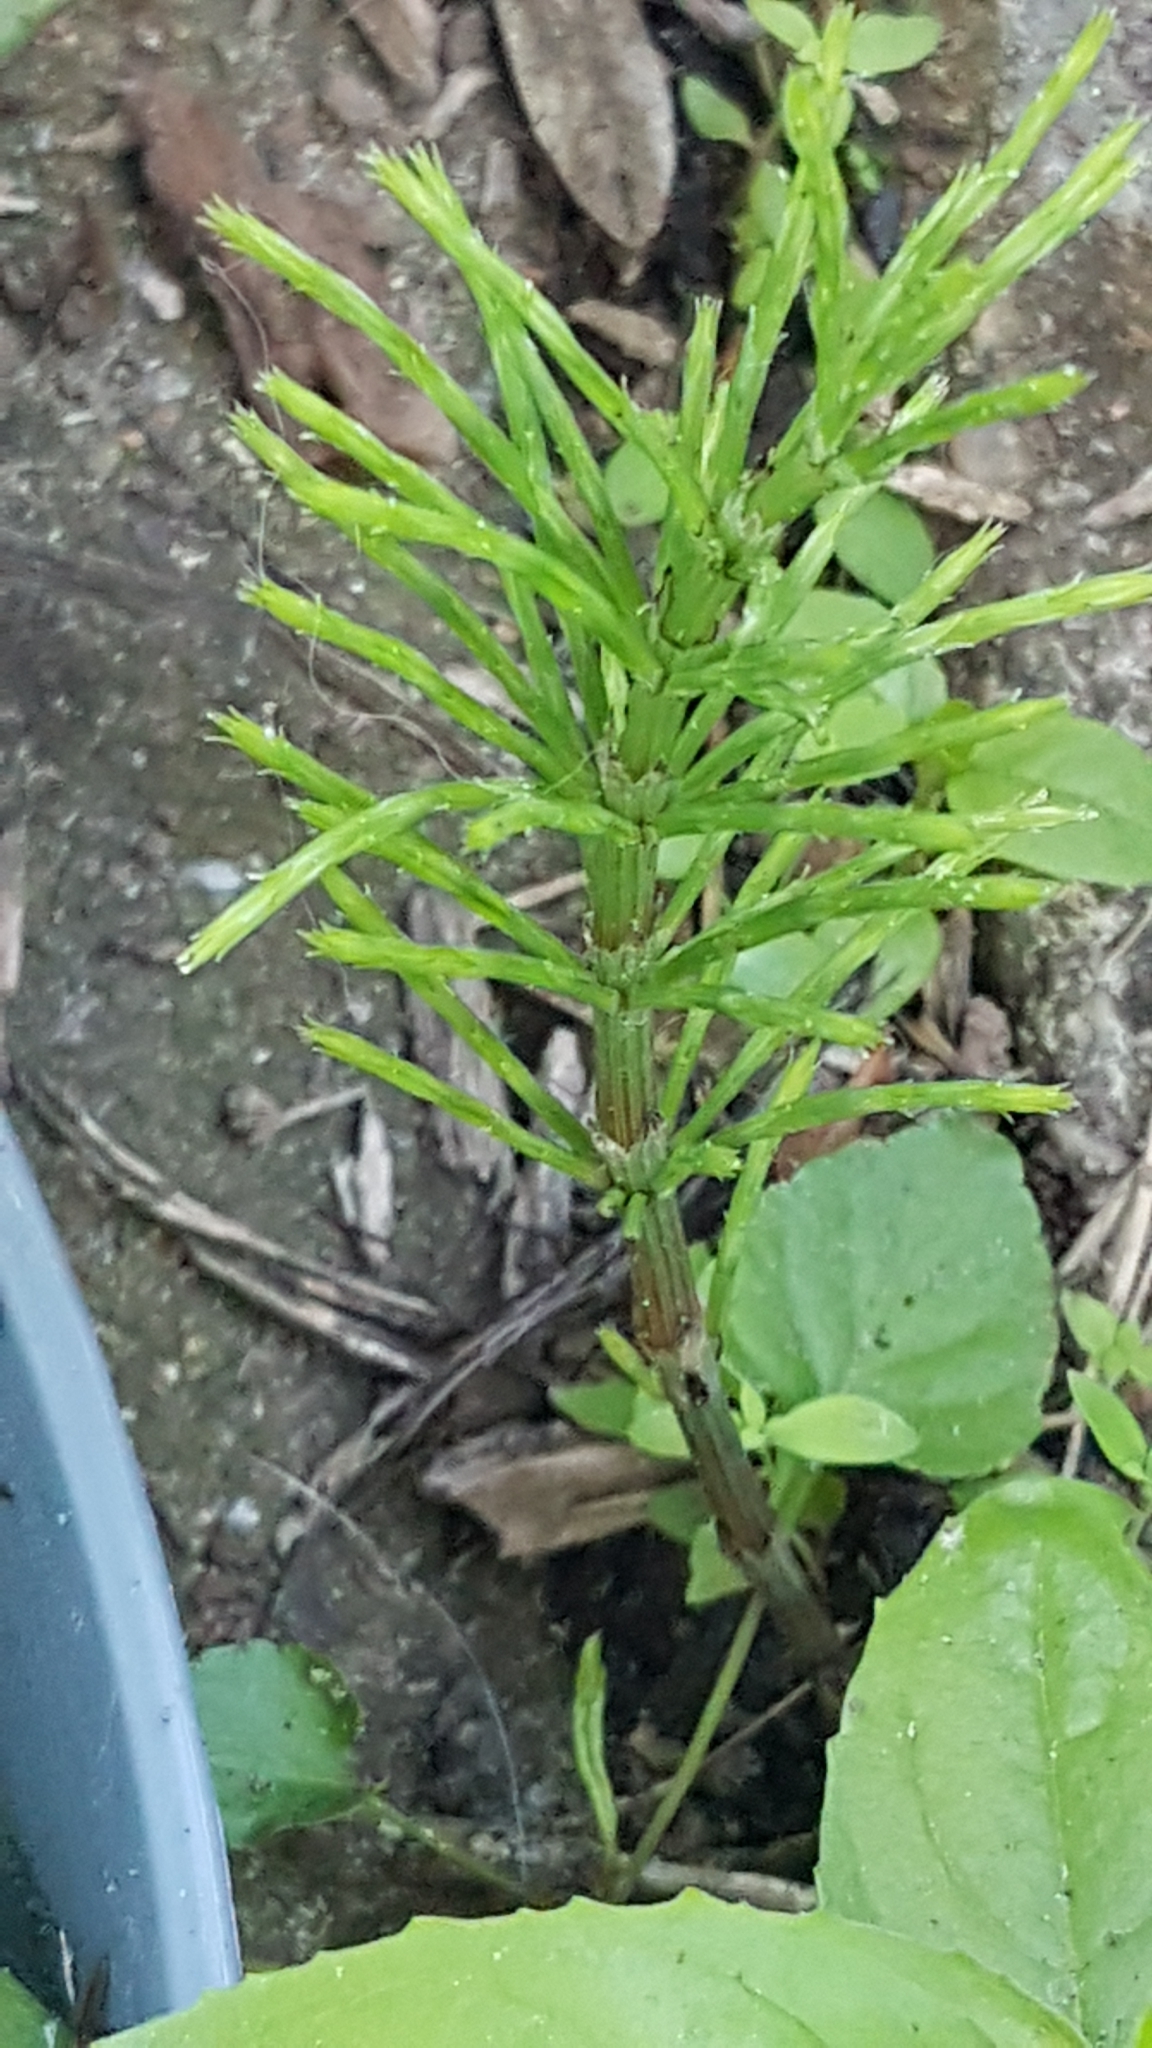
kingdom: Plantae
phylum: Tracheophyta
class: Polypodiopsida
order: Equisetales
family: Equisetaceae
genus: Equisetum
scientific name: Equisetum arvense
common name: Field horsetail
